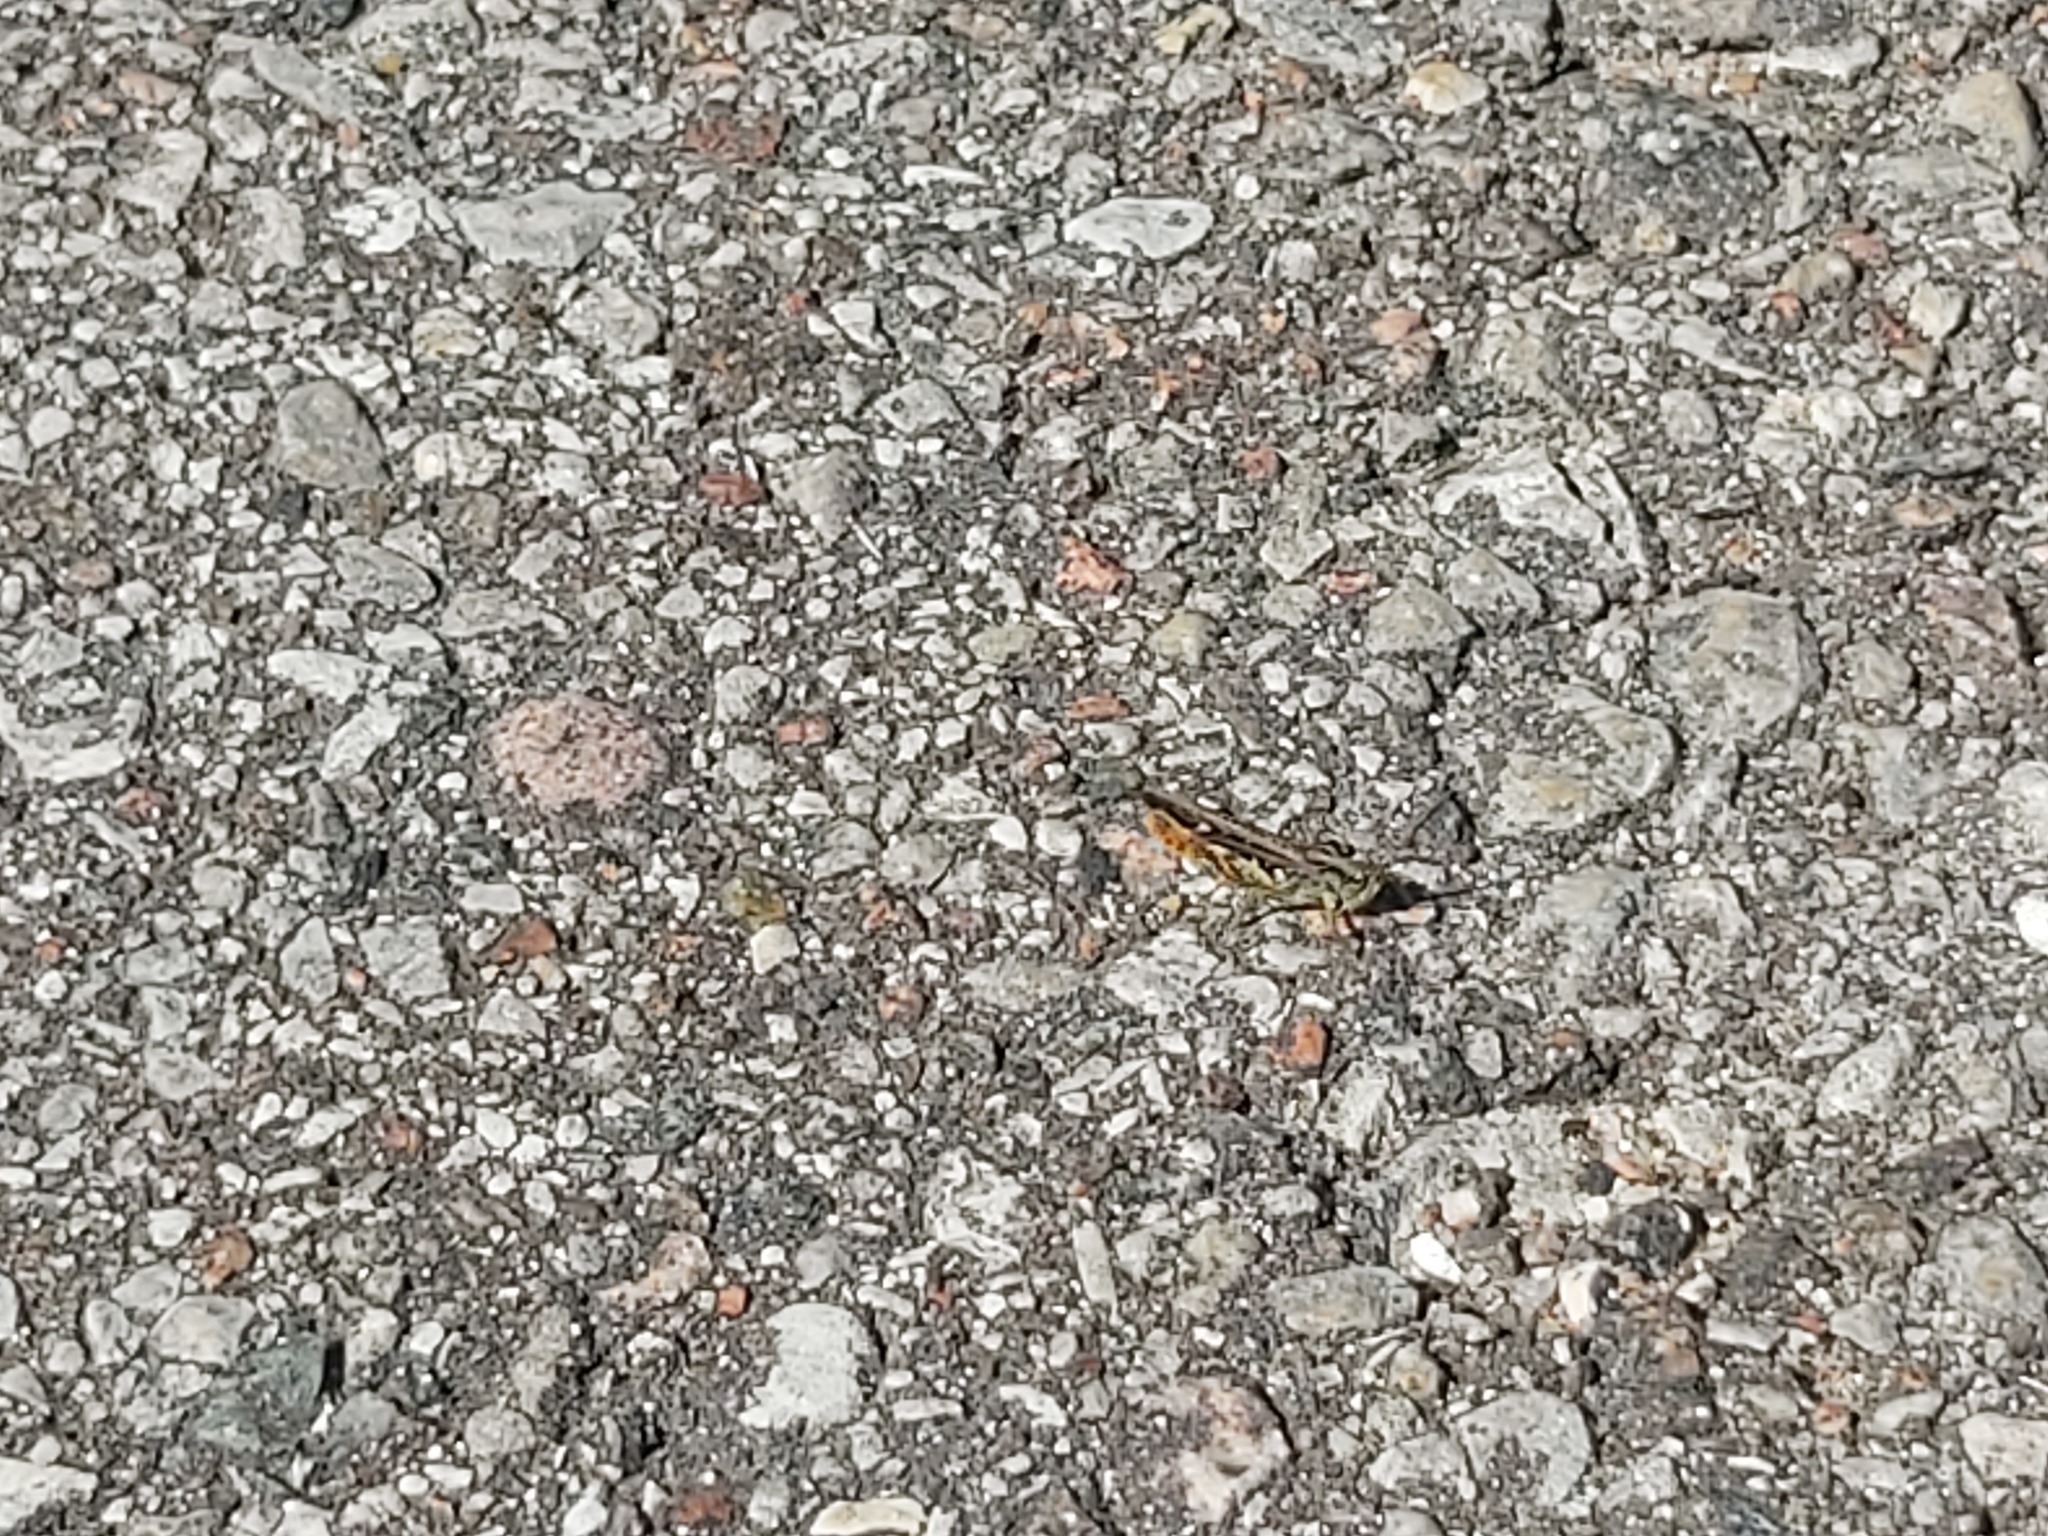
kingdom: Animalia
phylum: Arthropoda
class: Insecta
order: Orthoptera
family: Acrididae
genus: Chorthippus
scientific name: Chorthippus brunneus
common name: Field grasshopper
